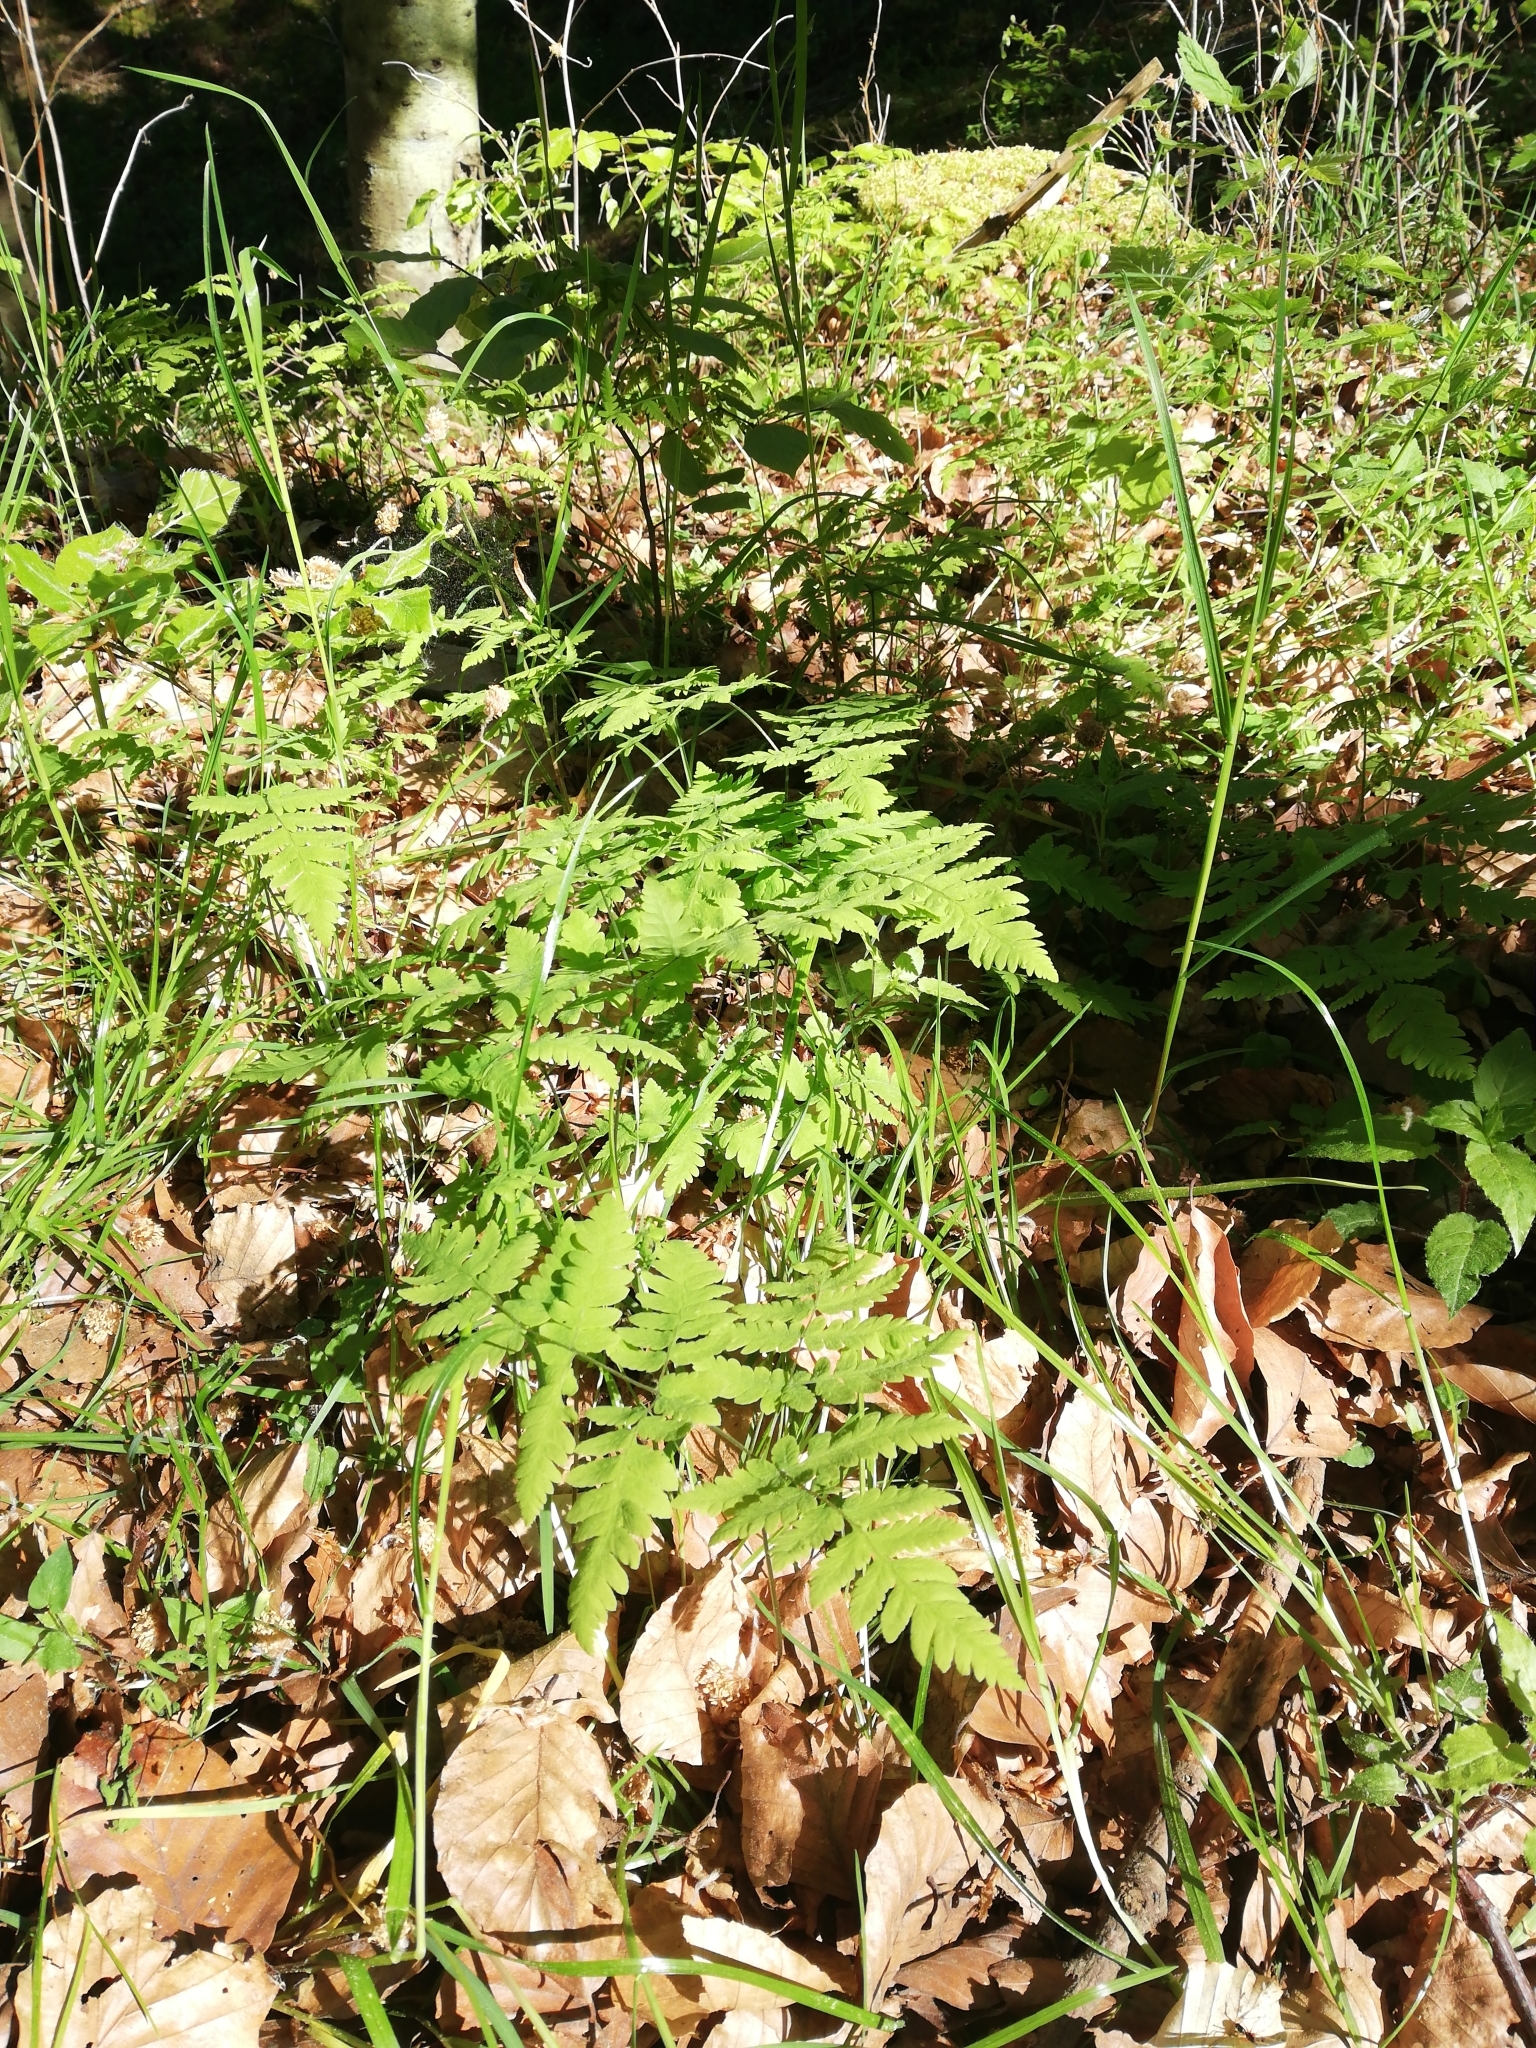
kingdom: Plantae
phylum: Tracheophyta
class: Polypodiopsida
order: Polypodiales
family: Cystopteridaceae
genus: Gymnocarpium
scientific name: Gymnocarpium dryopteris
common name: Oak fern
